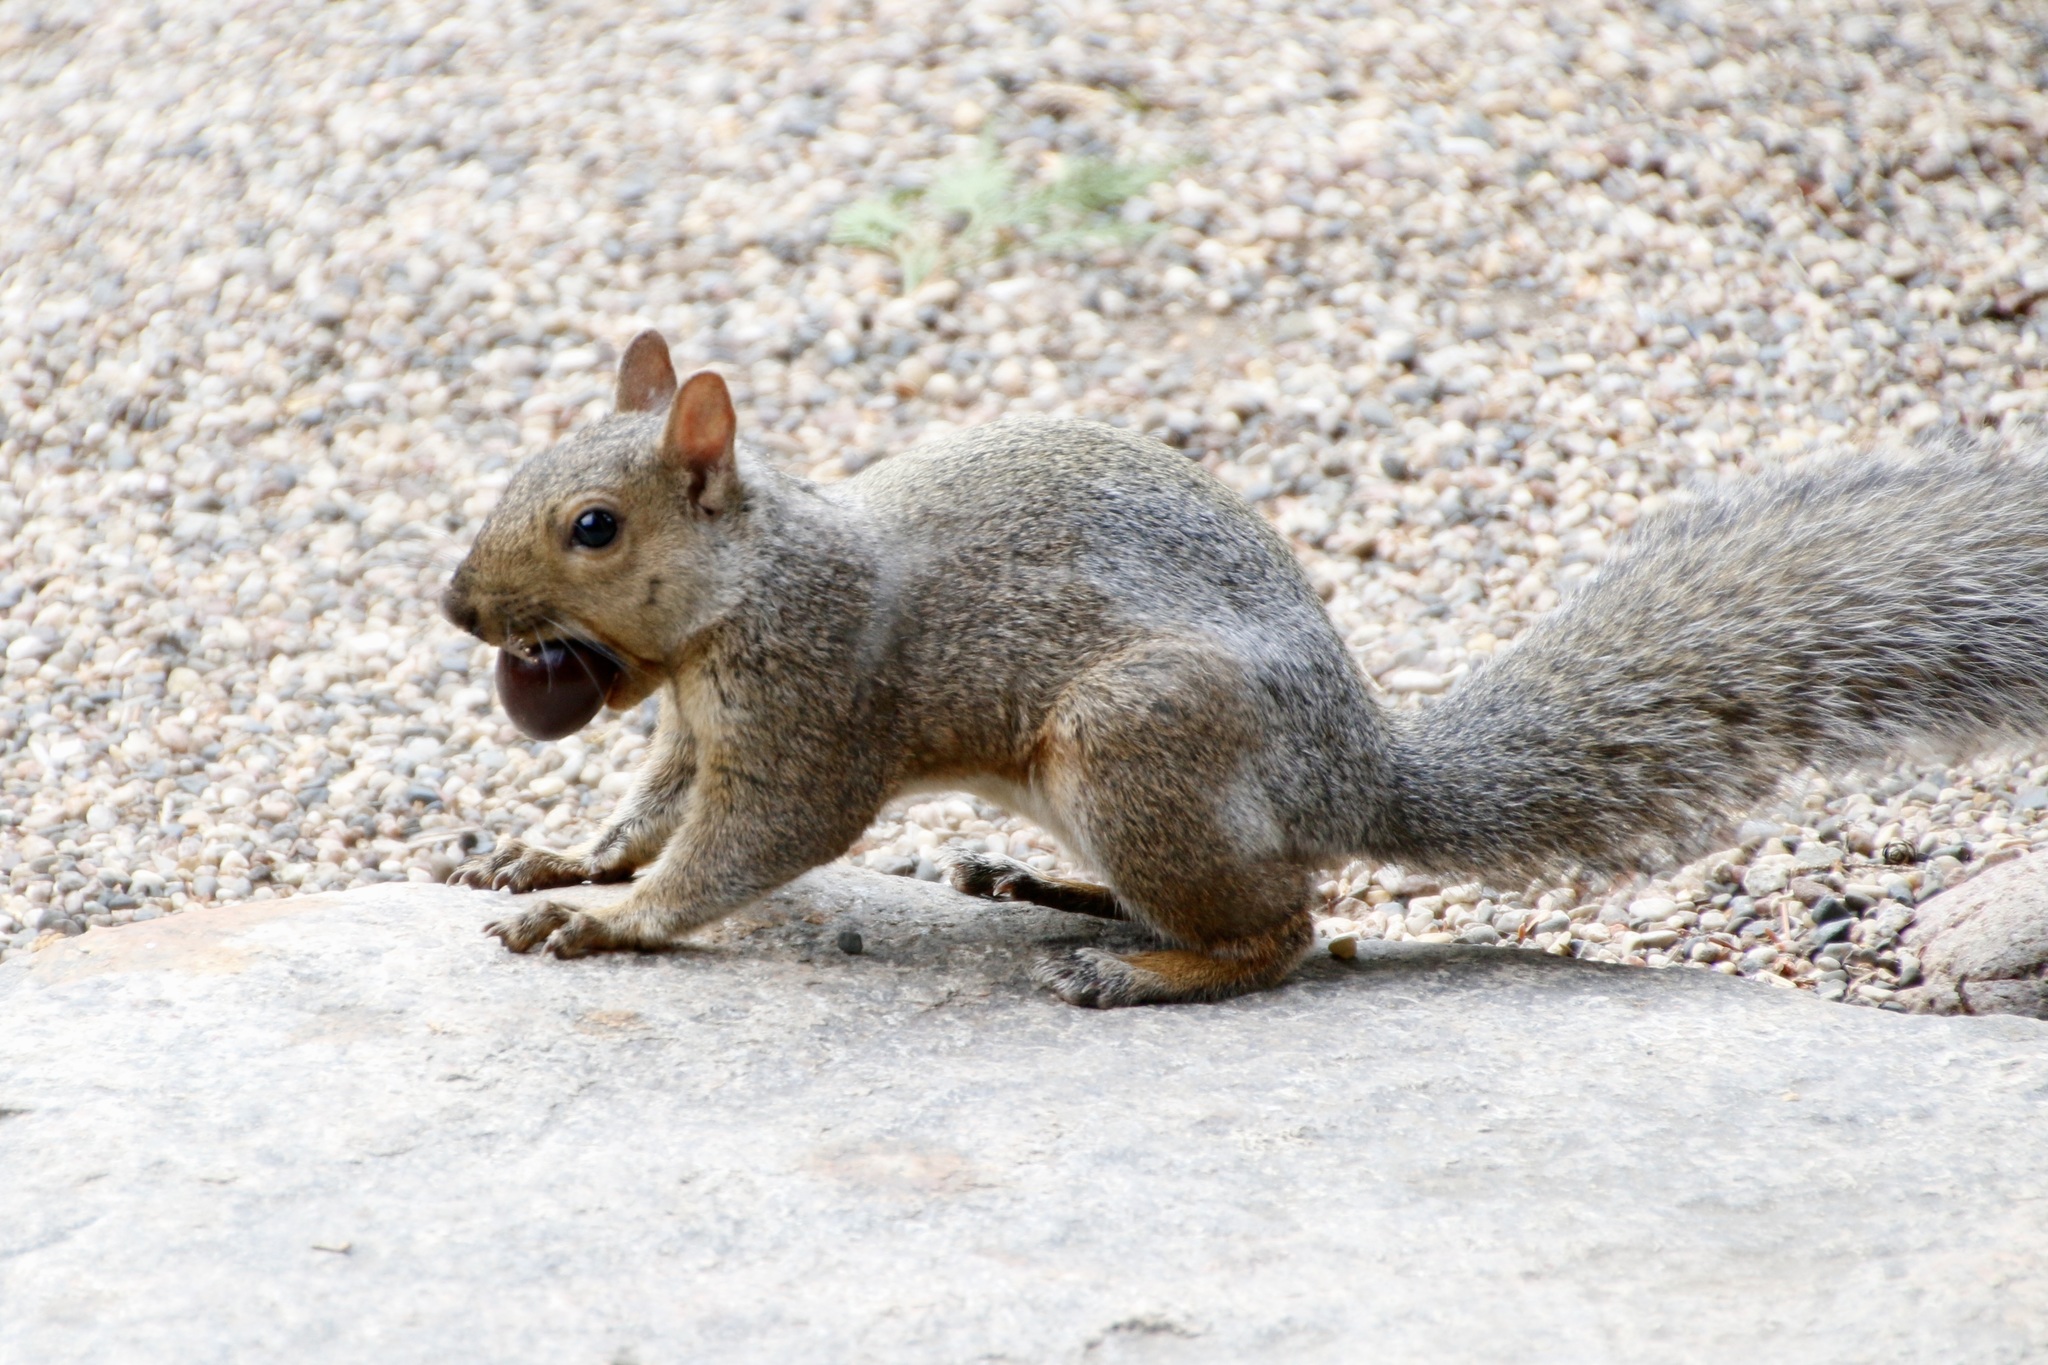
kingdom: Animalia
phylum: Chordata
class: Mammalia
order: Rodentia
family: Sciuridae
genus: Sciurus
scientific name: Sciurus carolinensis
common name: Eastern gray squirrel
